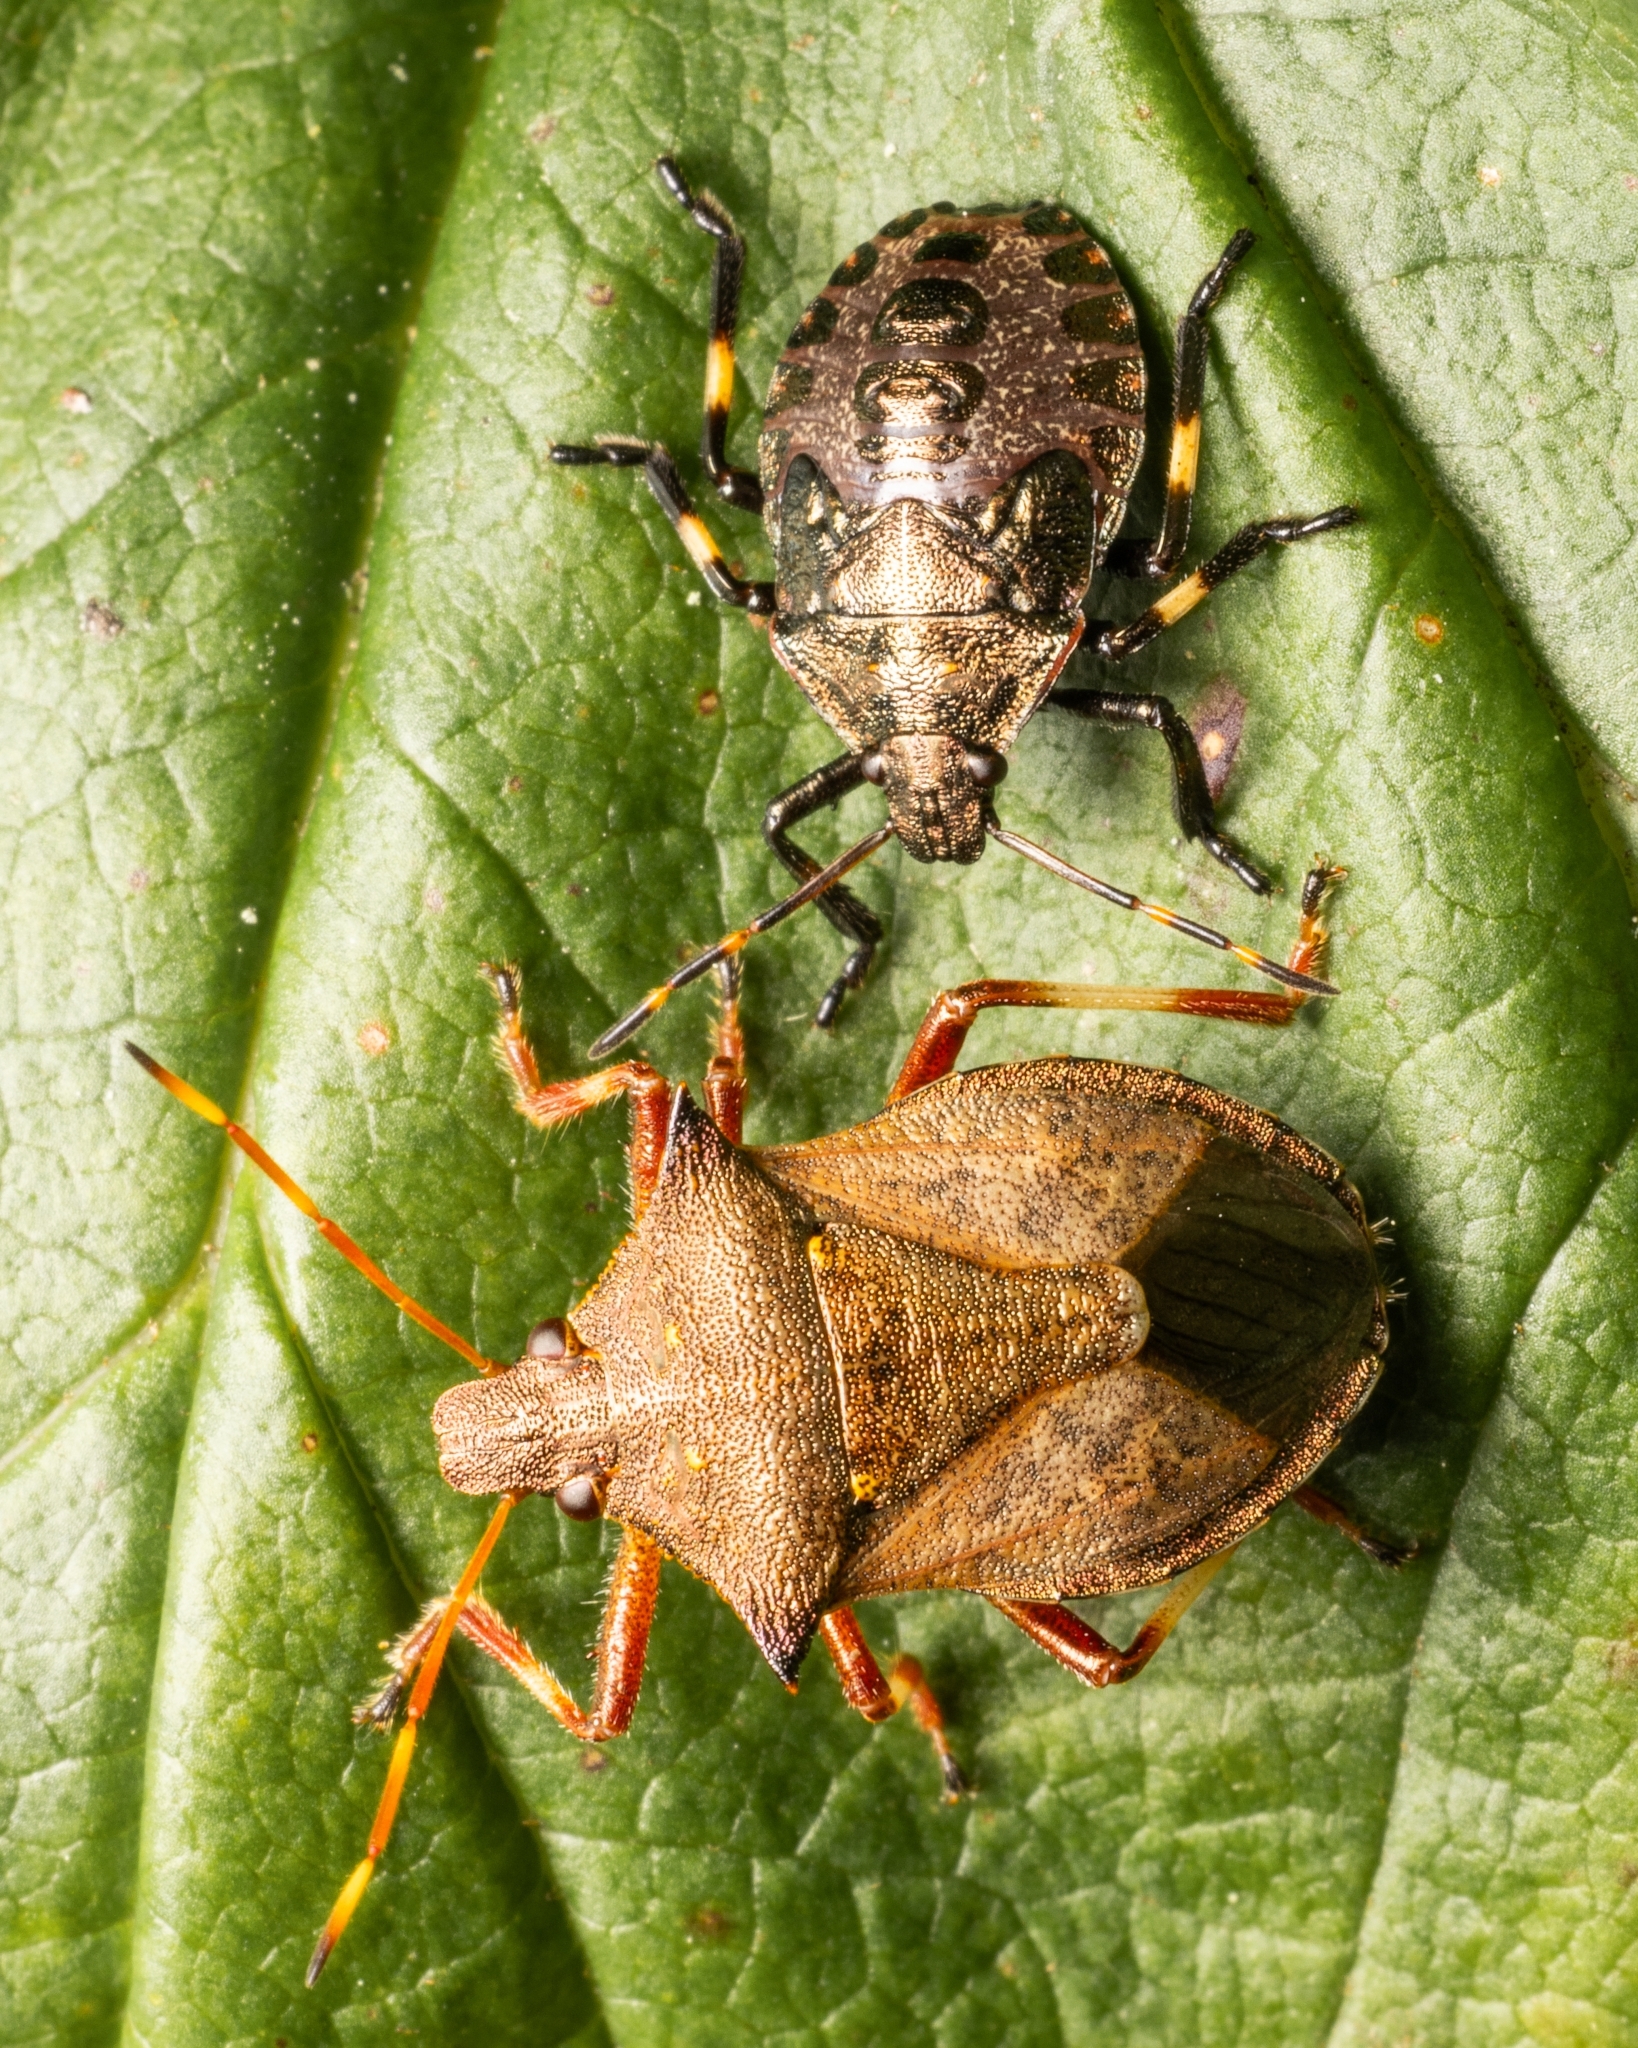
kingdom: Animalia
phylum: Arthropoda
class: Insecta
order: Hemiptera
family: Pentatomidae
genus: Picromerus
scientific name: Picromerus bidens
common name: Spiked shieldbug
